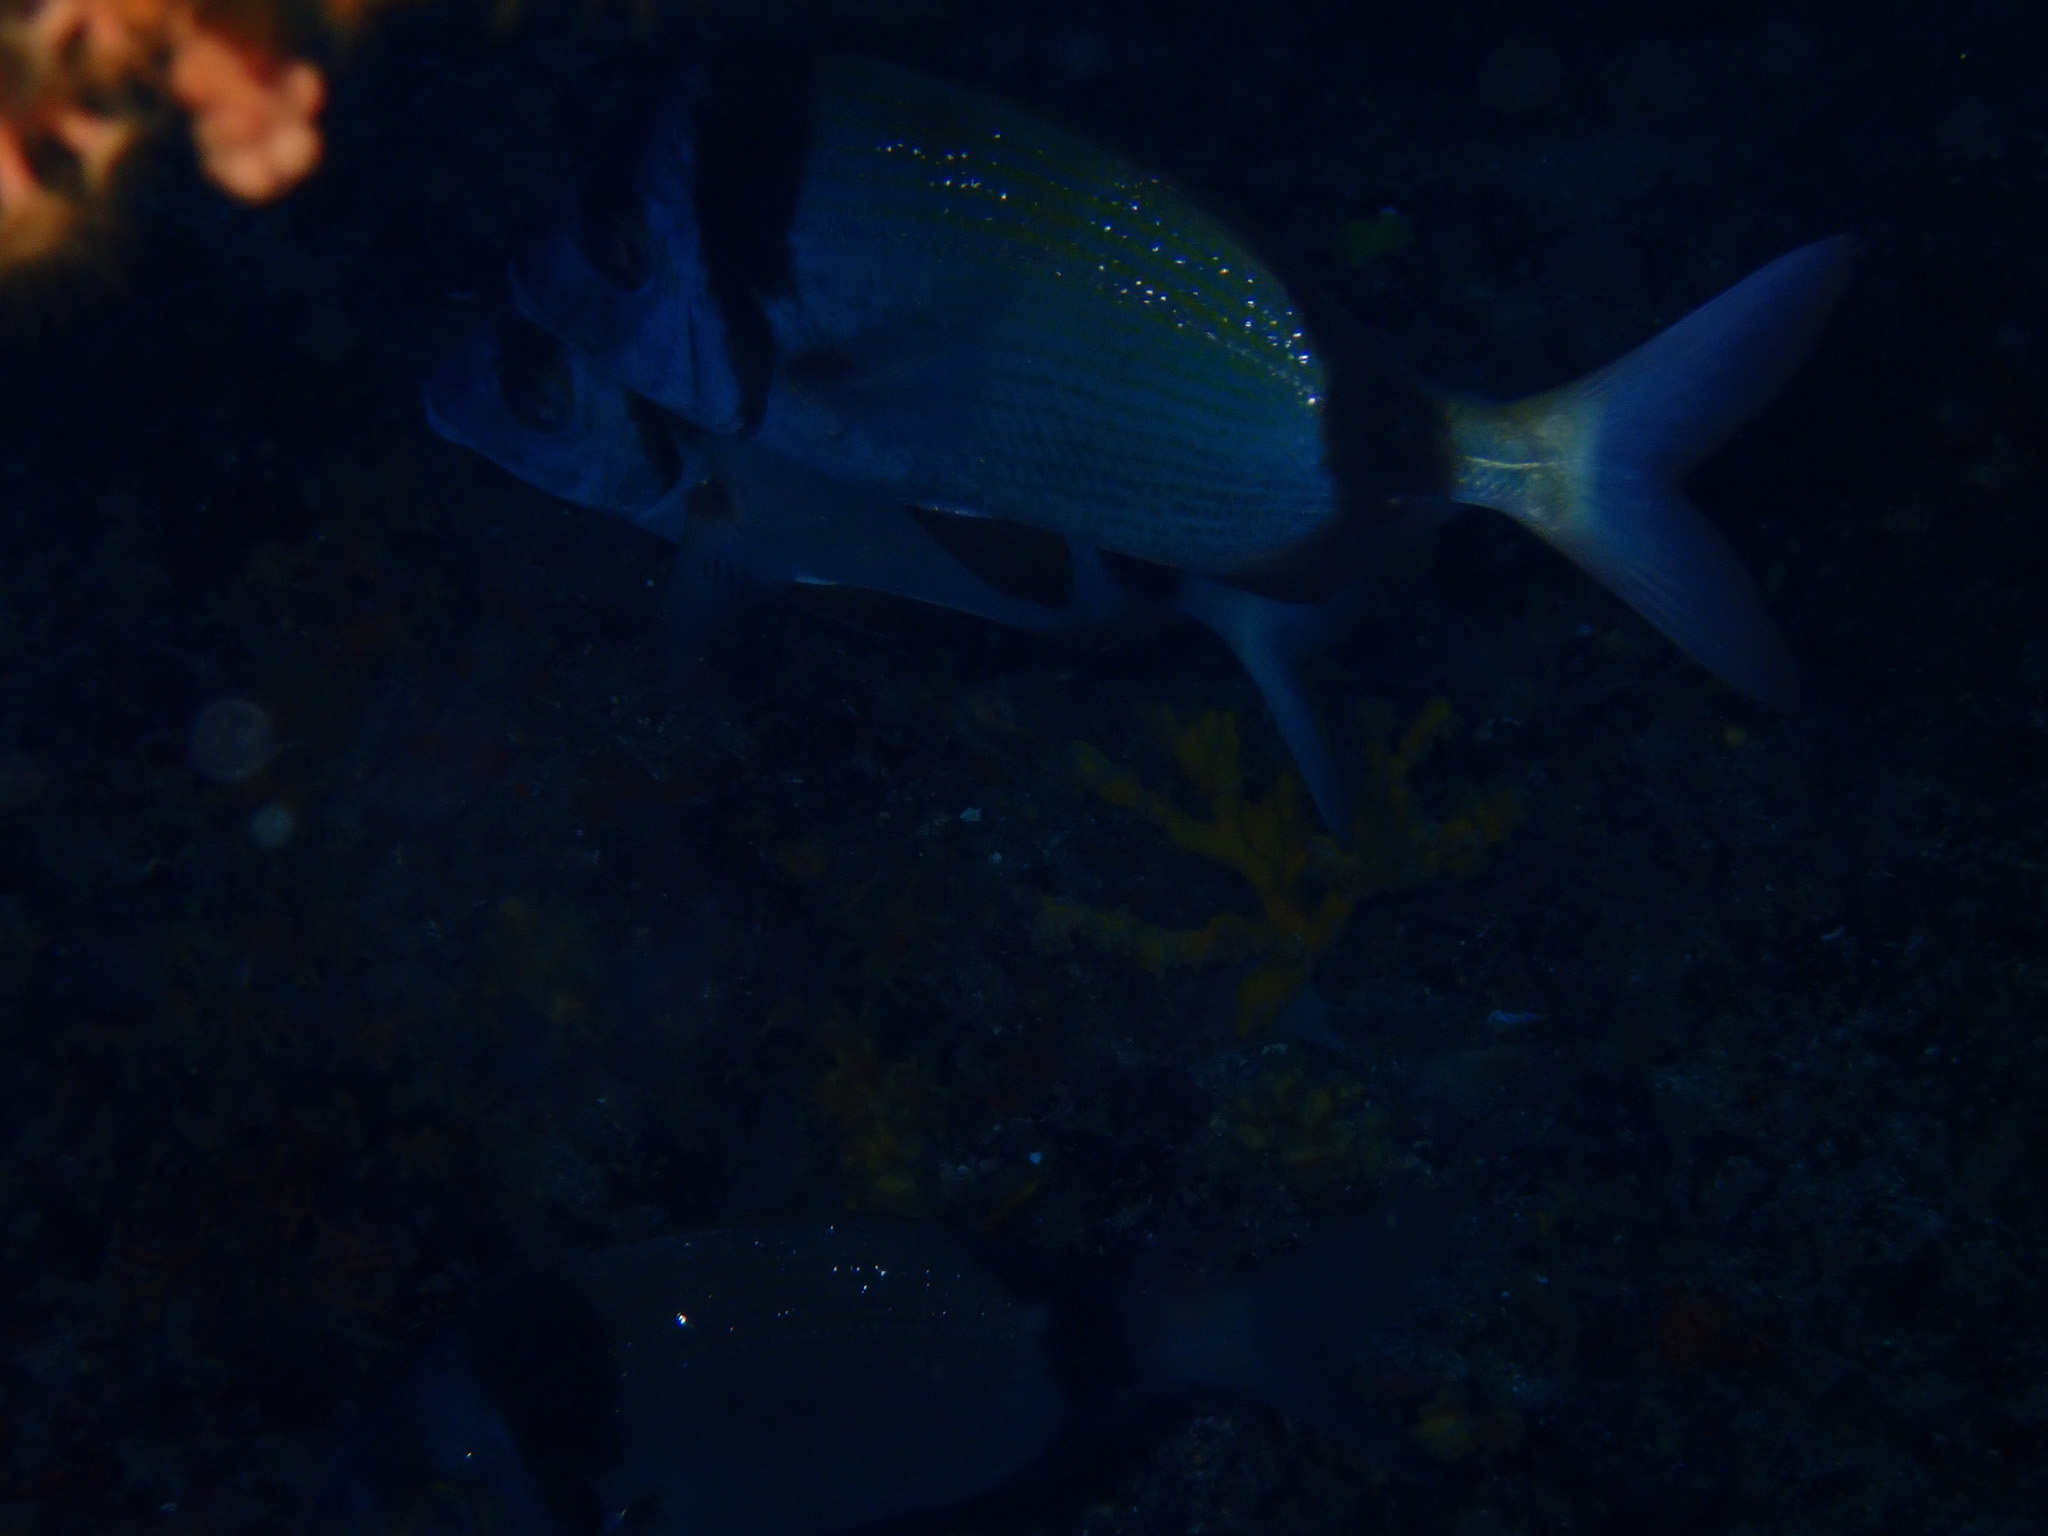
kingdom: Animalia
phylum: Chordata
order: Perciformes
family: Sparidae
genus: Diplodus
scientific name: Diplodus vulgaris
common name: Common two-banded seabream
